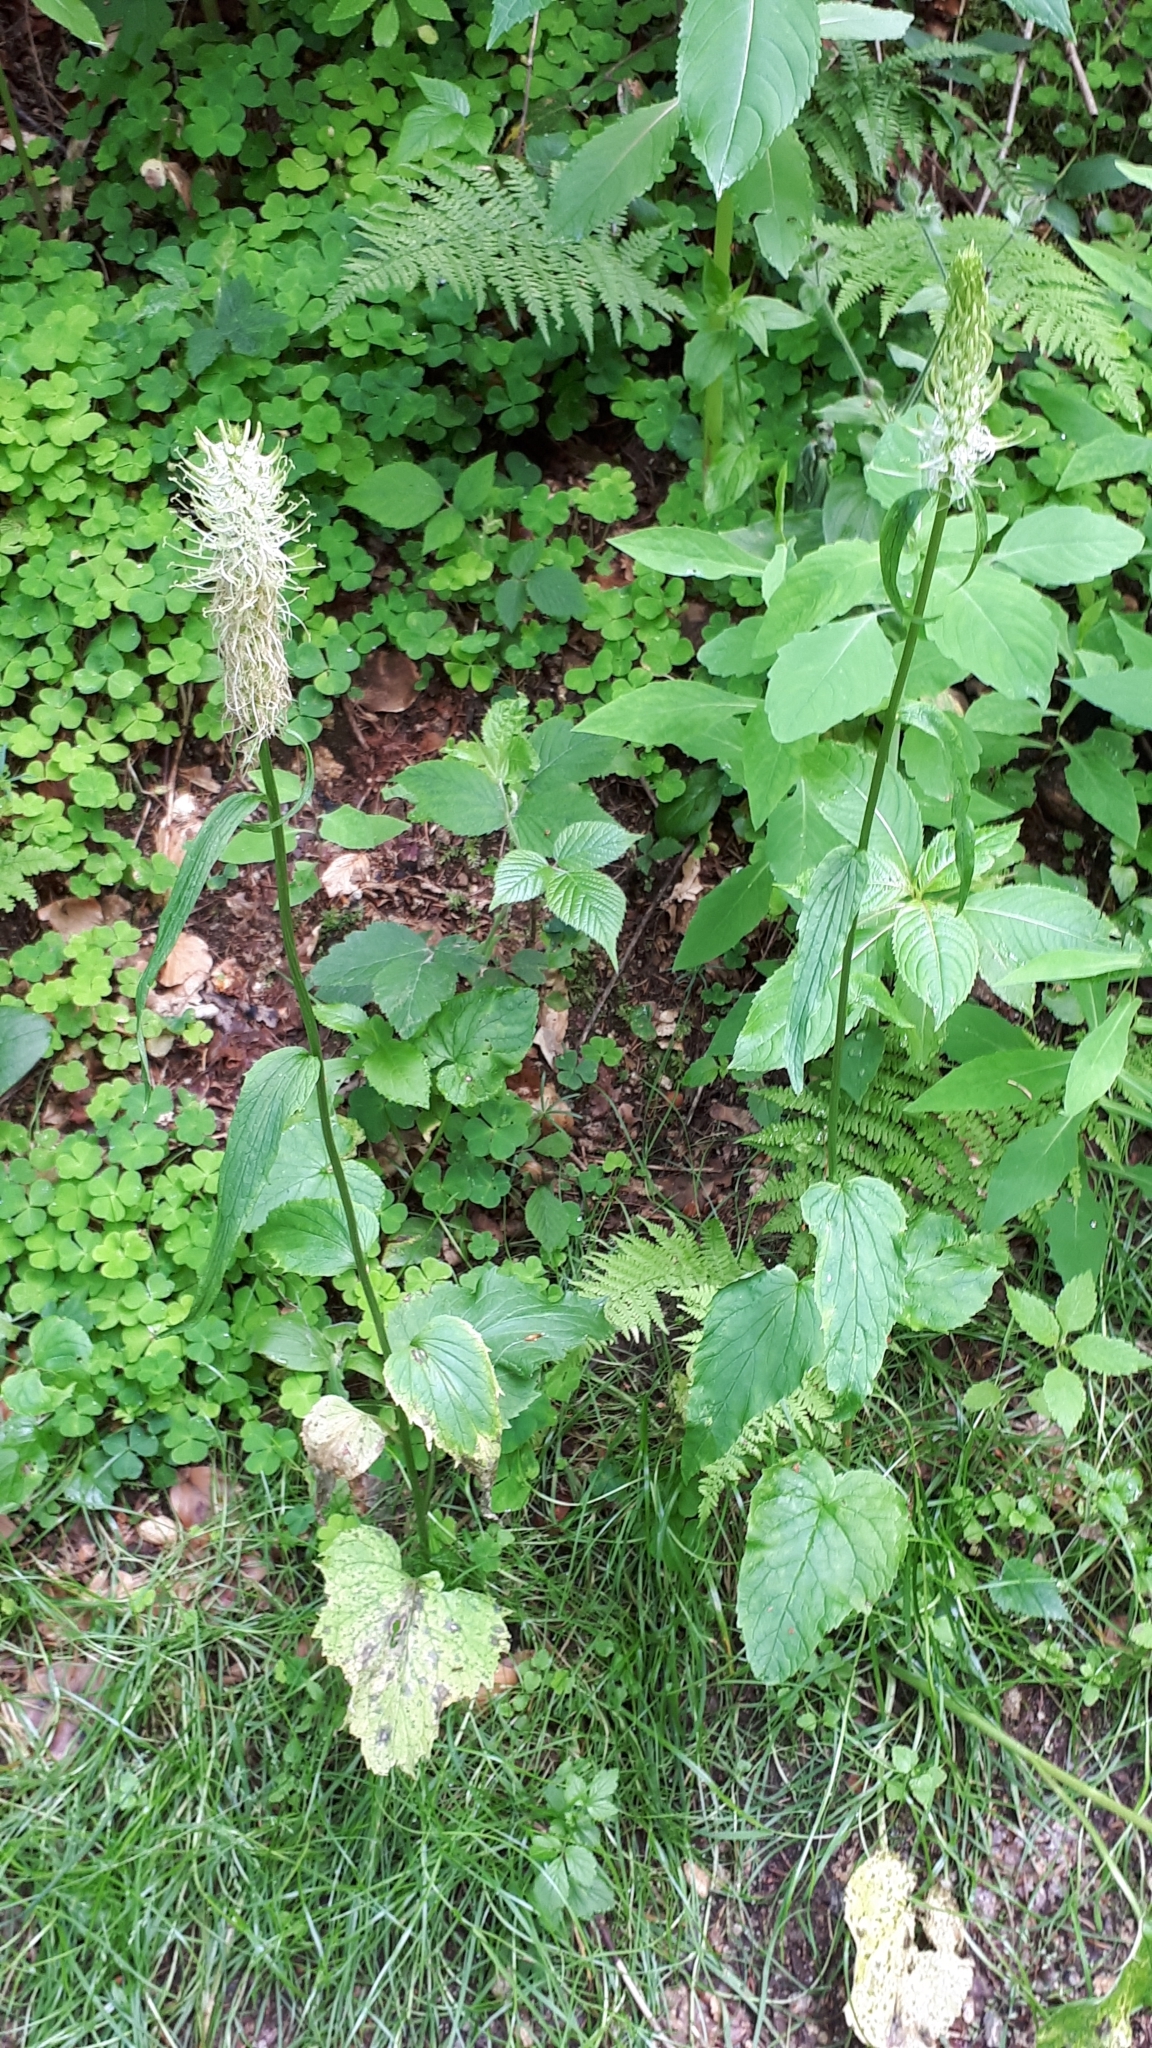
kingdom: Plantae
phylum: Tracheophyta
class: Magnoliopsida
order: Asterales
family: Campanulaceae
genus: Phyteuma
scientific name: Phyteuma spicatum
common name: Spiked rampion
